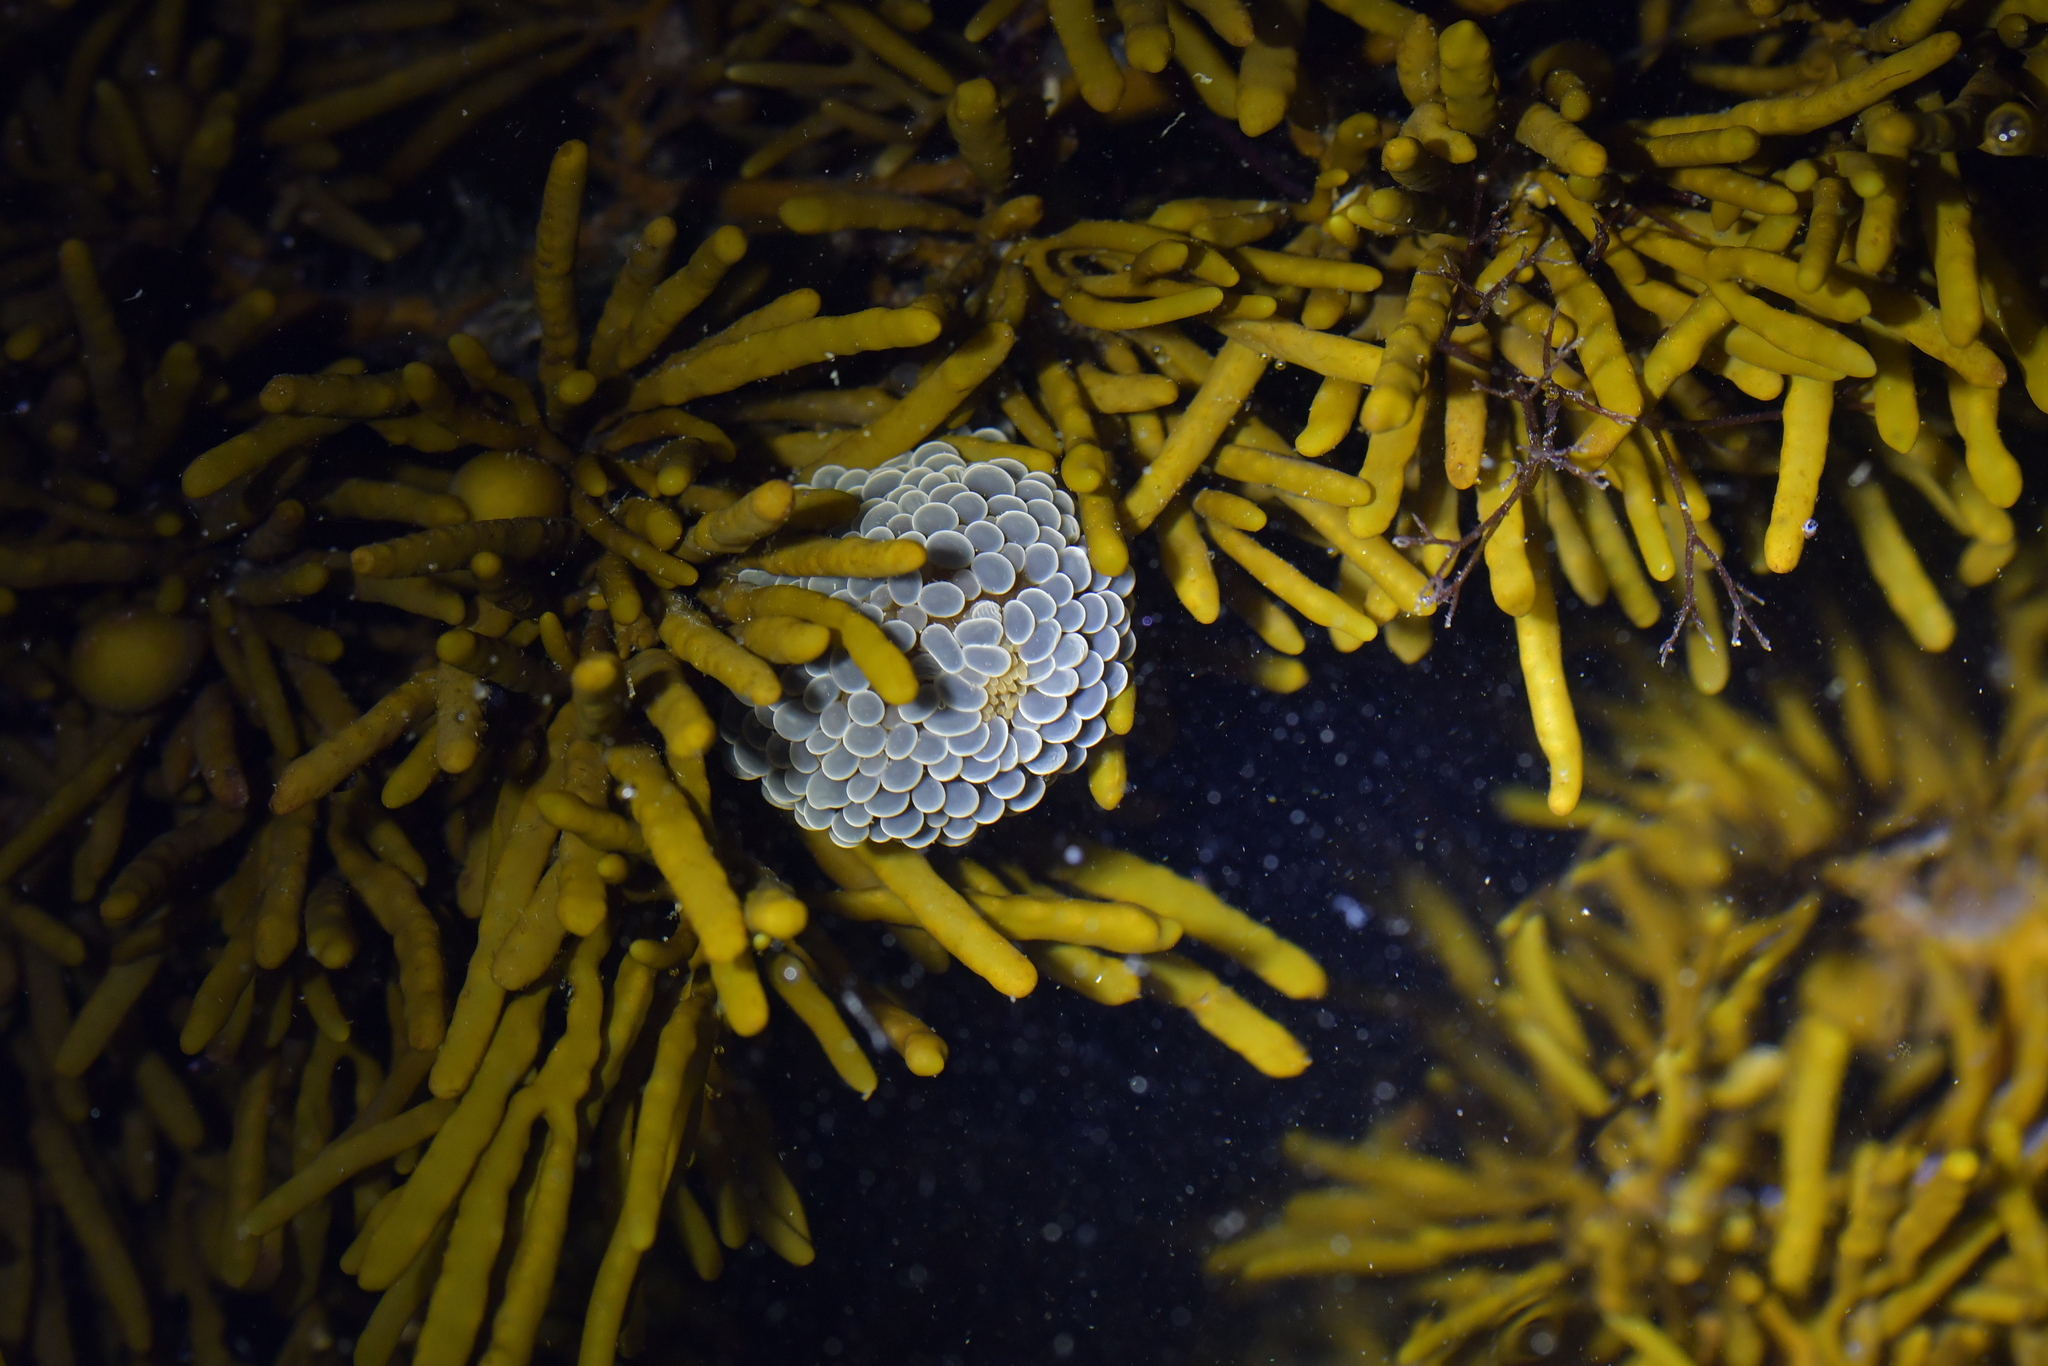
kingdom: Animalia
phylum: Cnidaria
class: Anthozoa
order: Actiniaria
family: Actiniidae
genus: Phlyctenactis
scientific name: Phlyctenactis tuberculosa
